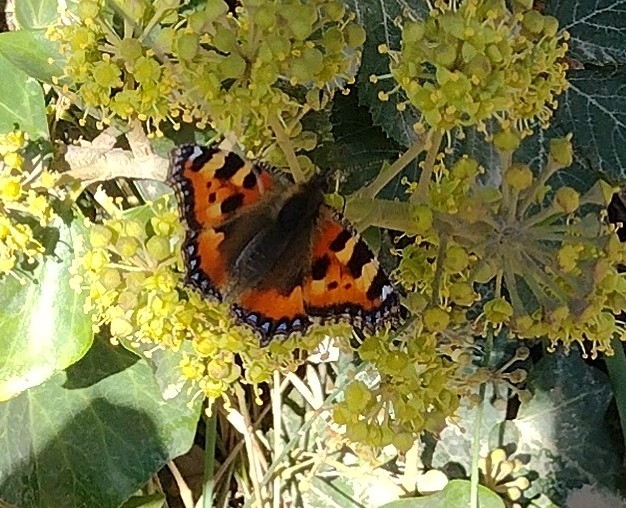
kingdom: Animalia
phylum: Arthropoda
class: Insecta
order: Lepidoptera
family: Nymphalidae
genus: Aglais
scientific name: Aglais urticae
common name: Small tortoiseshell
